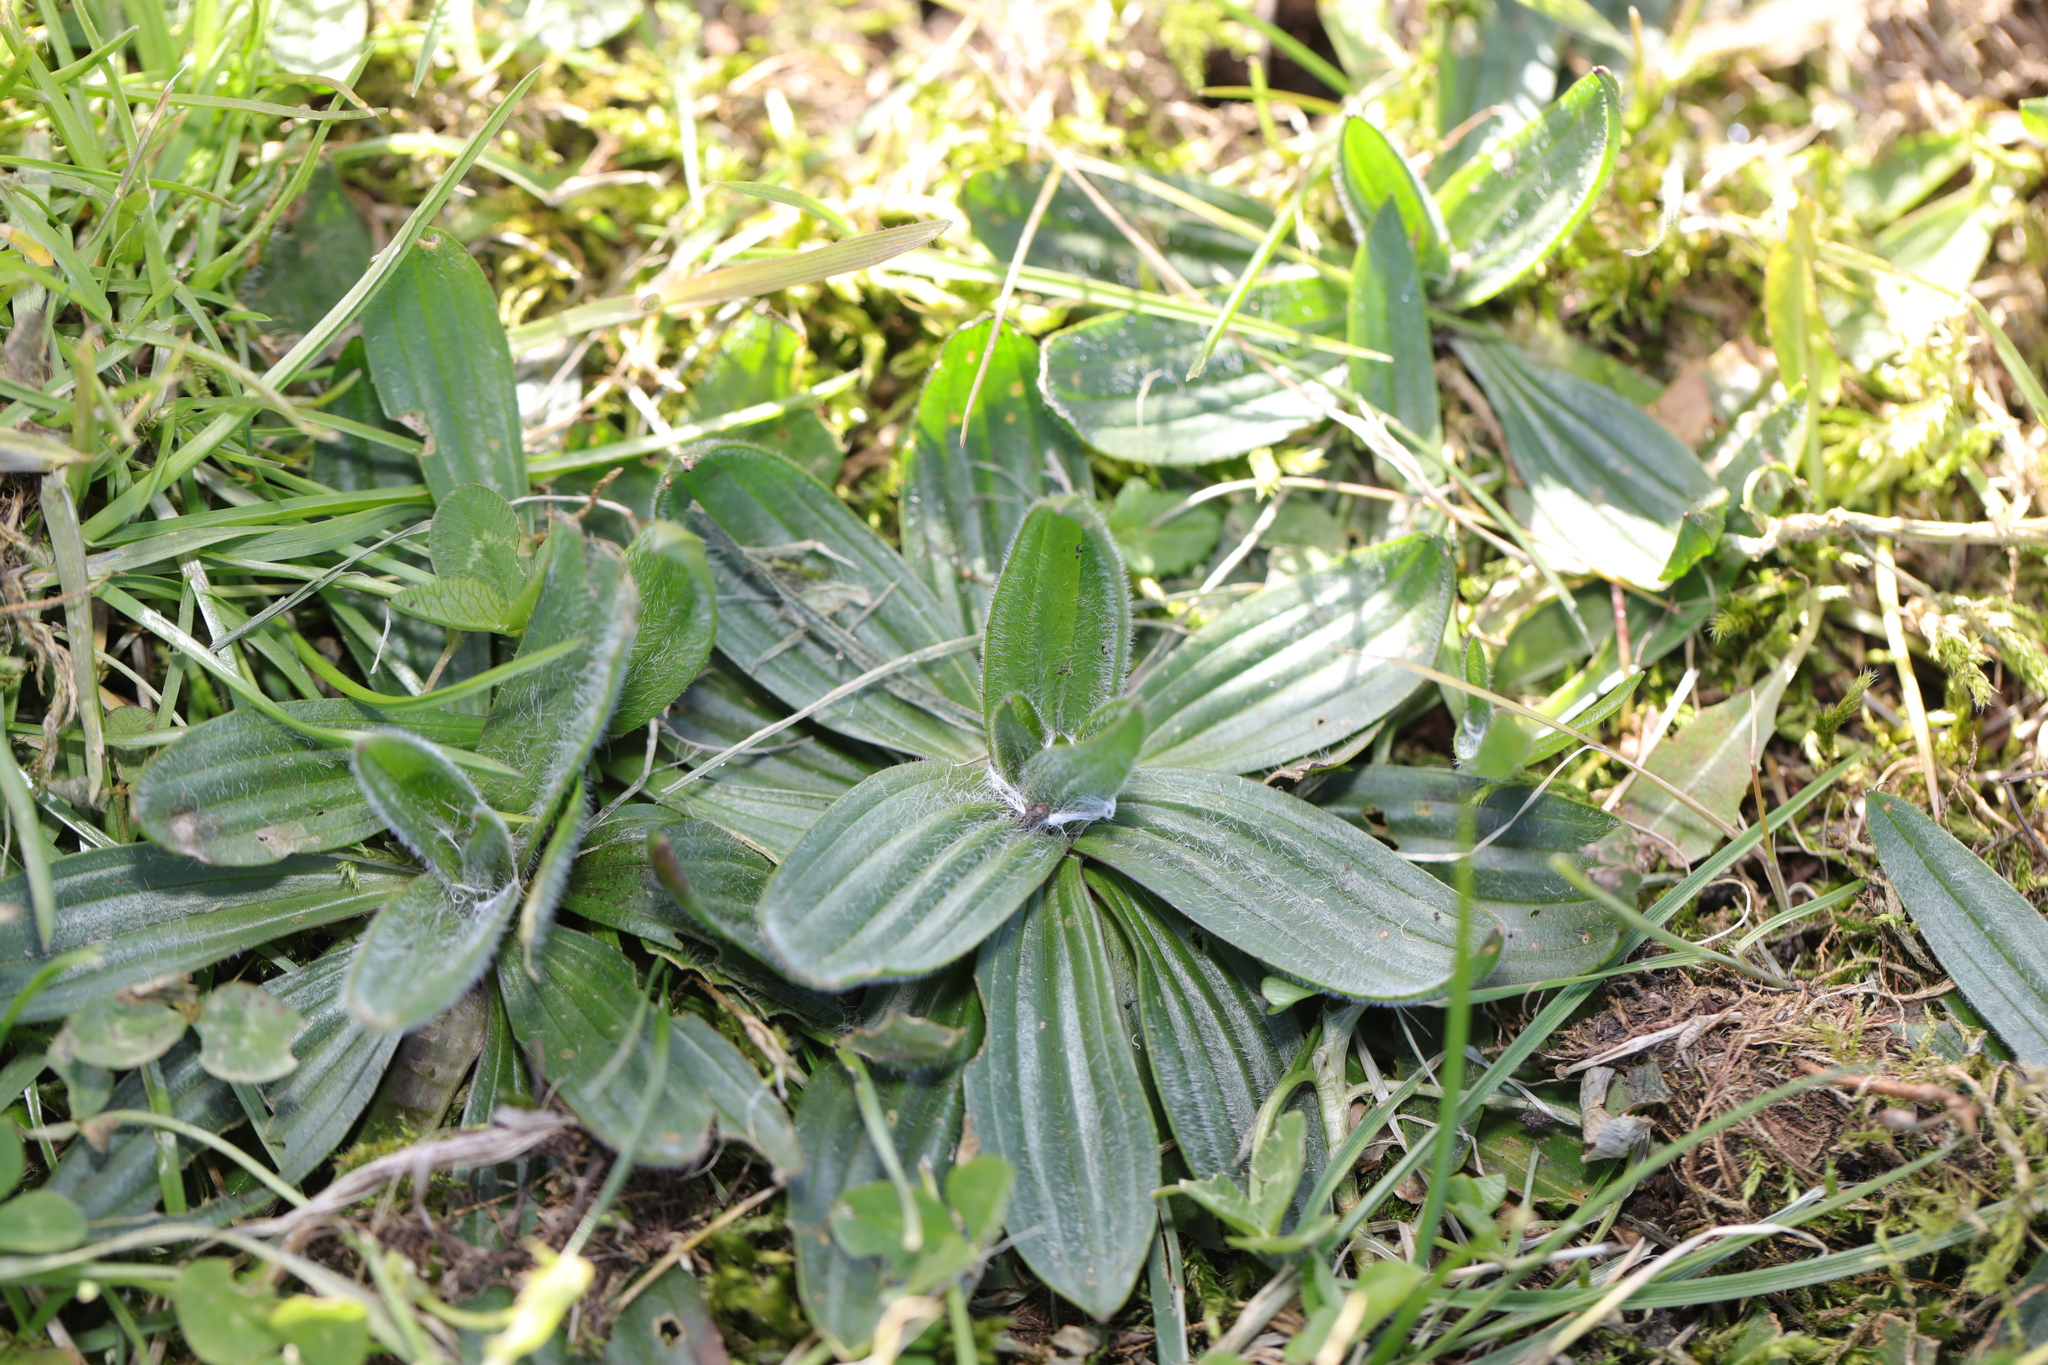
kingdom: Plantae
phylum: Tracheophyta
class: Magnoliopsida
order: Lamiales
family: Plantaginaceae
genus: Plantago
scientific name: Plantago lanceolata
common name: Ribwort plantain
